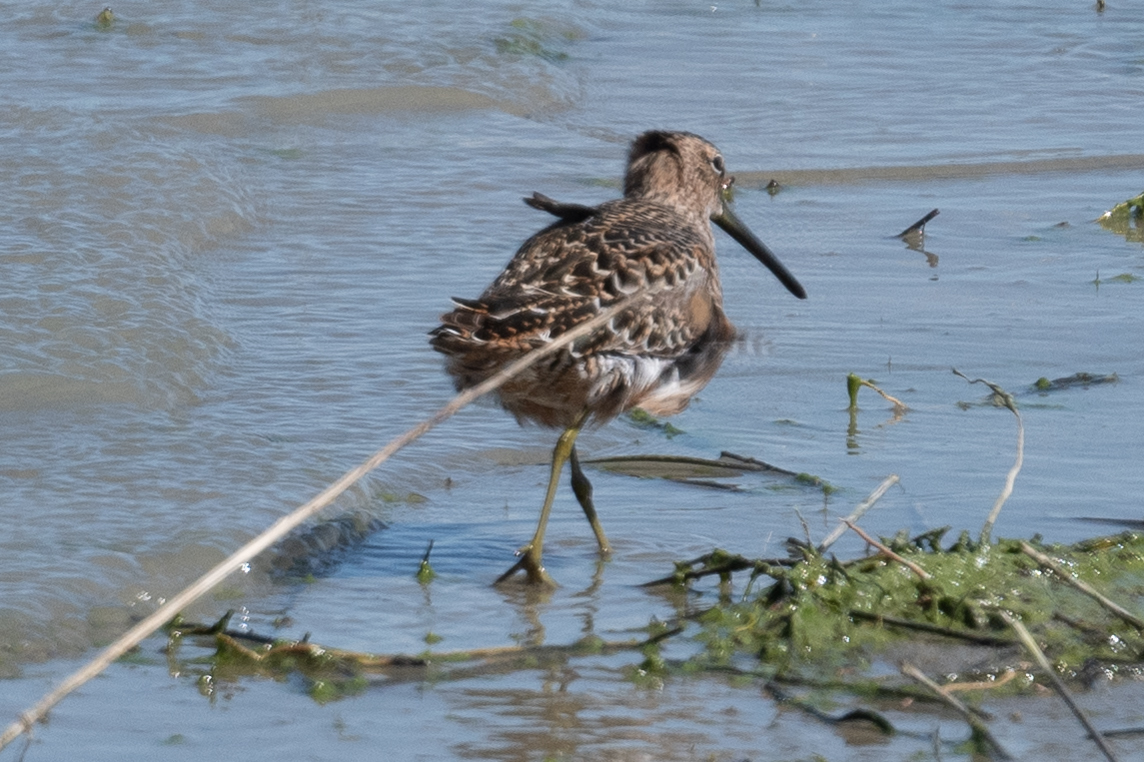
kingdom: Animalia
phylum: Chordata
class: Aves
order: Charadriiformes
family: Scolopacidae
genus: Limnodromus
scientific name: Limnodromus scolopaceus
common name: Long-billed dowitcher
